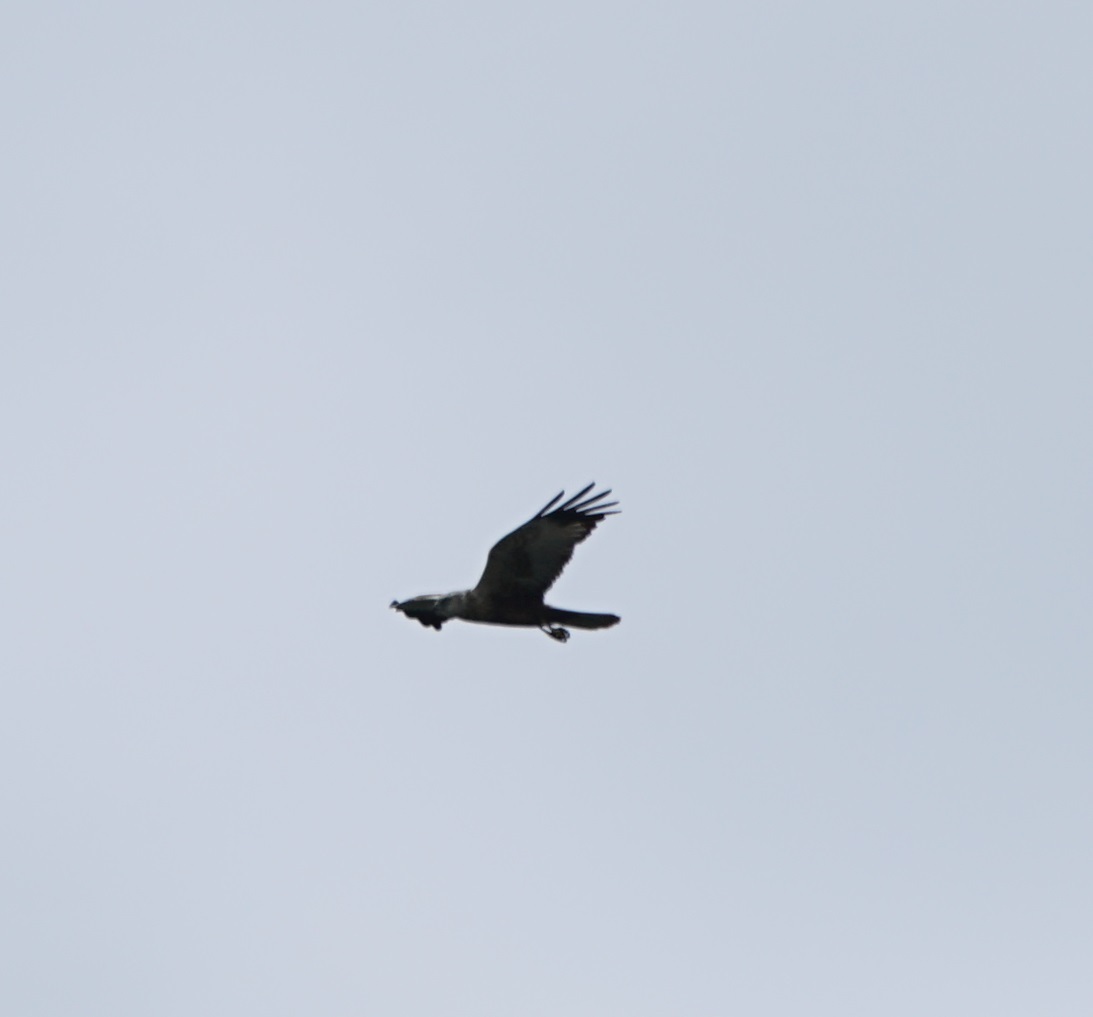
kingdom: Animalia
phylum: Chordata
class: Aves
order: Accipitriformes
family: Accipitridae
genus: Circus
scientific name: Circus aeruginosus
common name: Western marsh harrier
